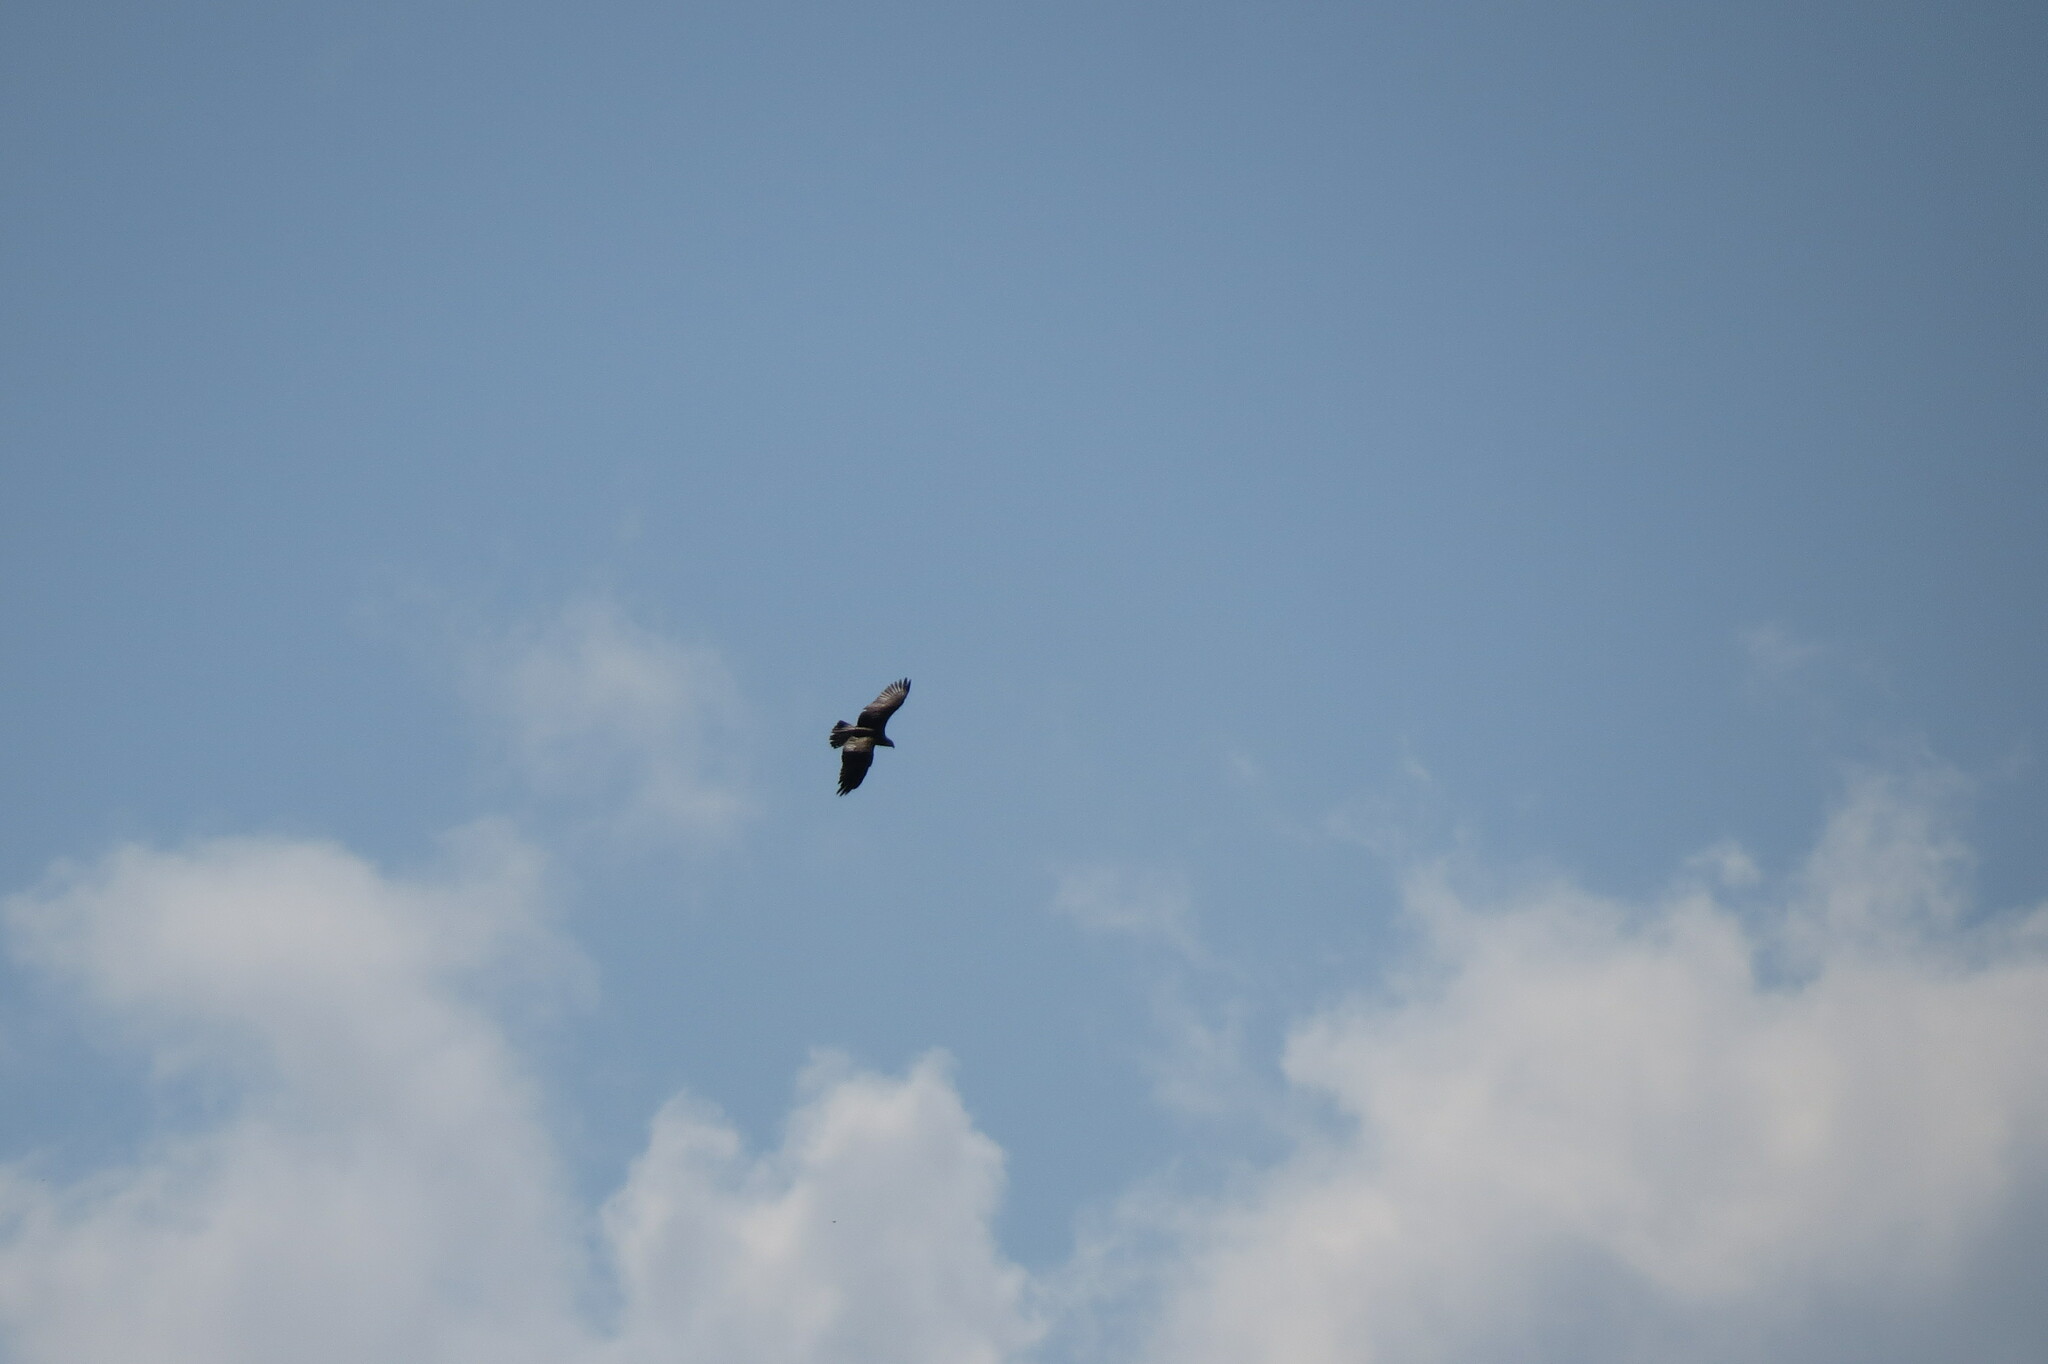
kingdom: Animalia
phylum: Chordata
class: Aves
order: Accipitriformes
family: Accipitridae
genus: Milvus
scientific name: Milvus migrans
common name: Black kite
